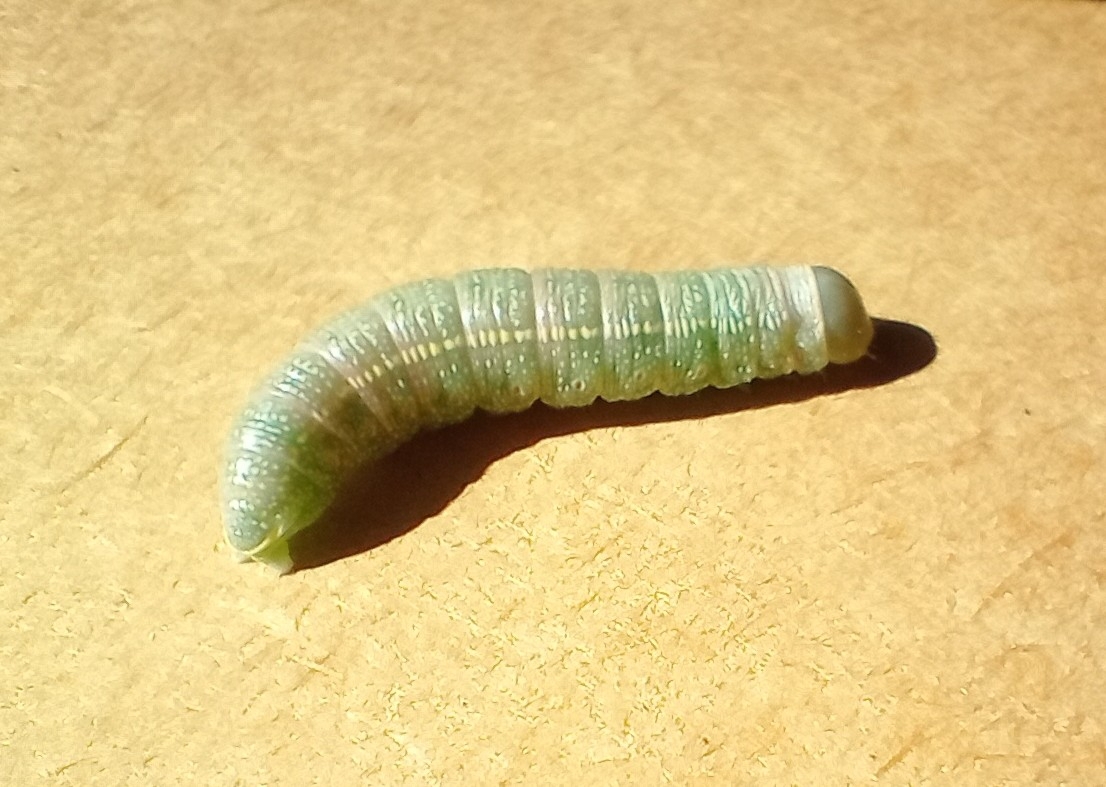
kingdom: Animalia
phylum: Arthropoda
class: Insecta
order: Lepidoptera
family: Notodontidae
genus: Nadata
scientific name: Nadata gibbosa
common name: White-dotted prominent
